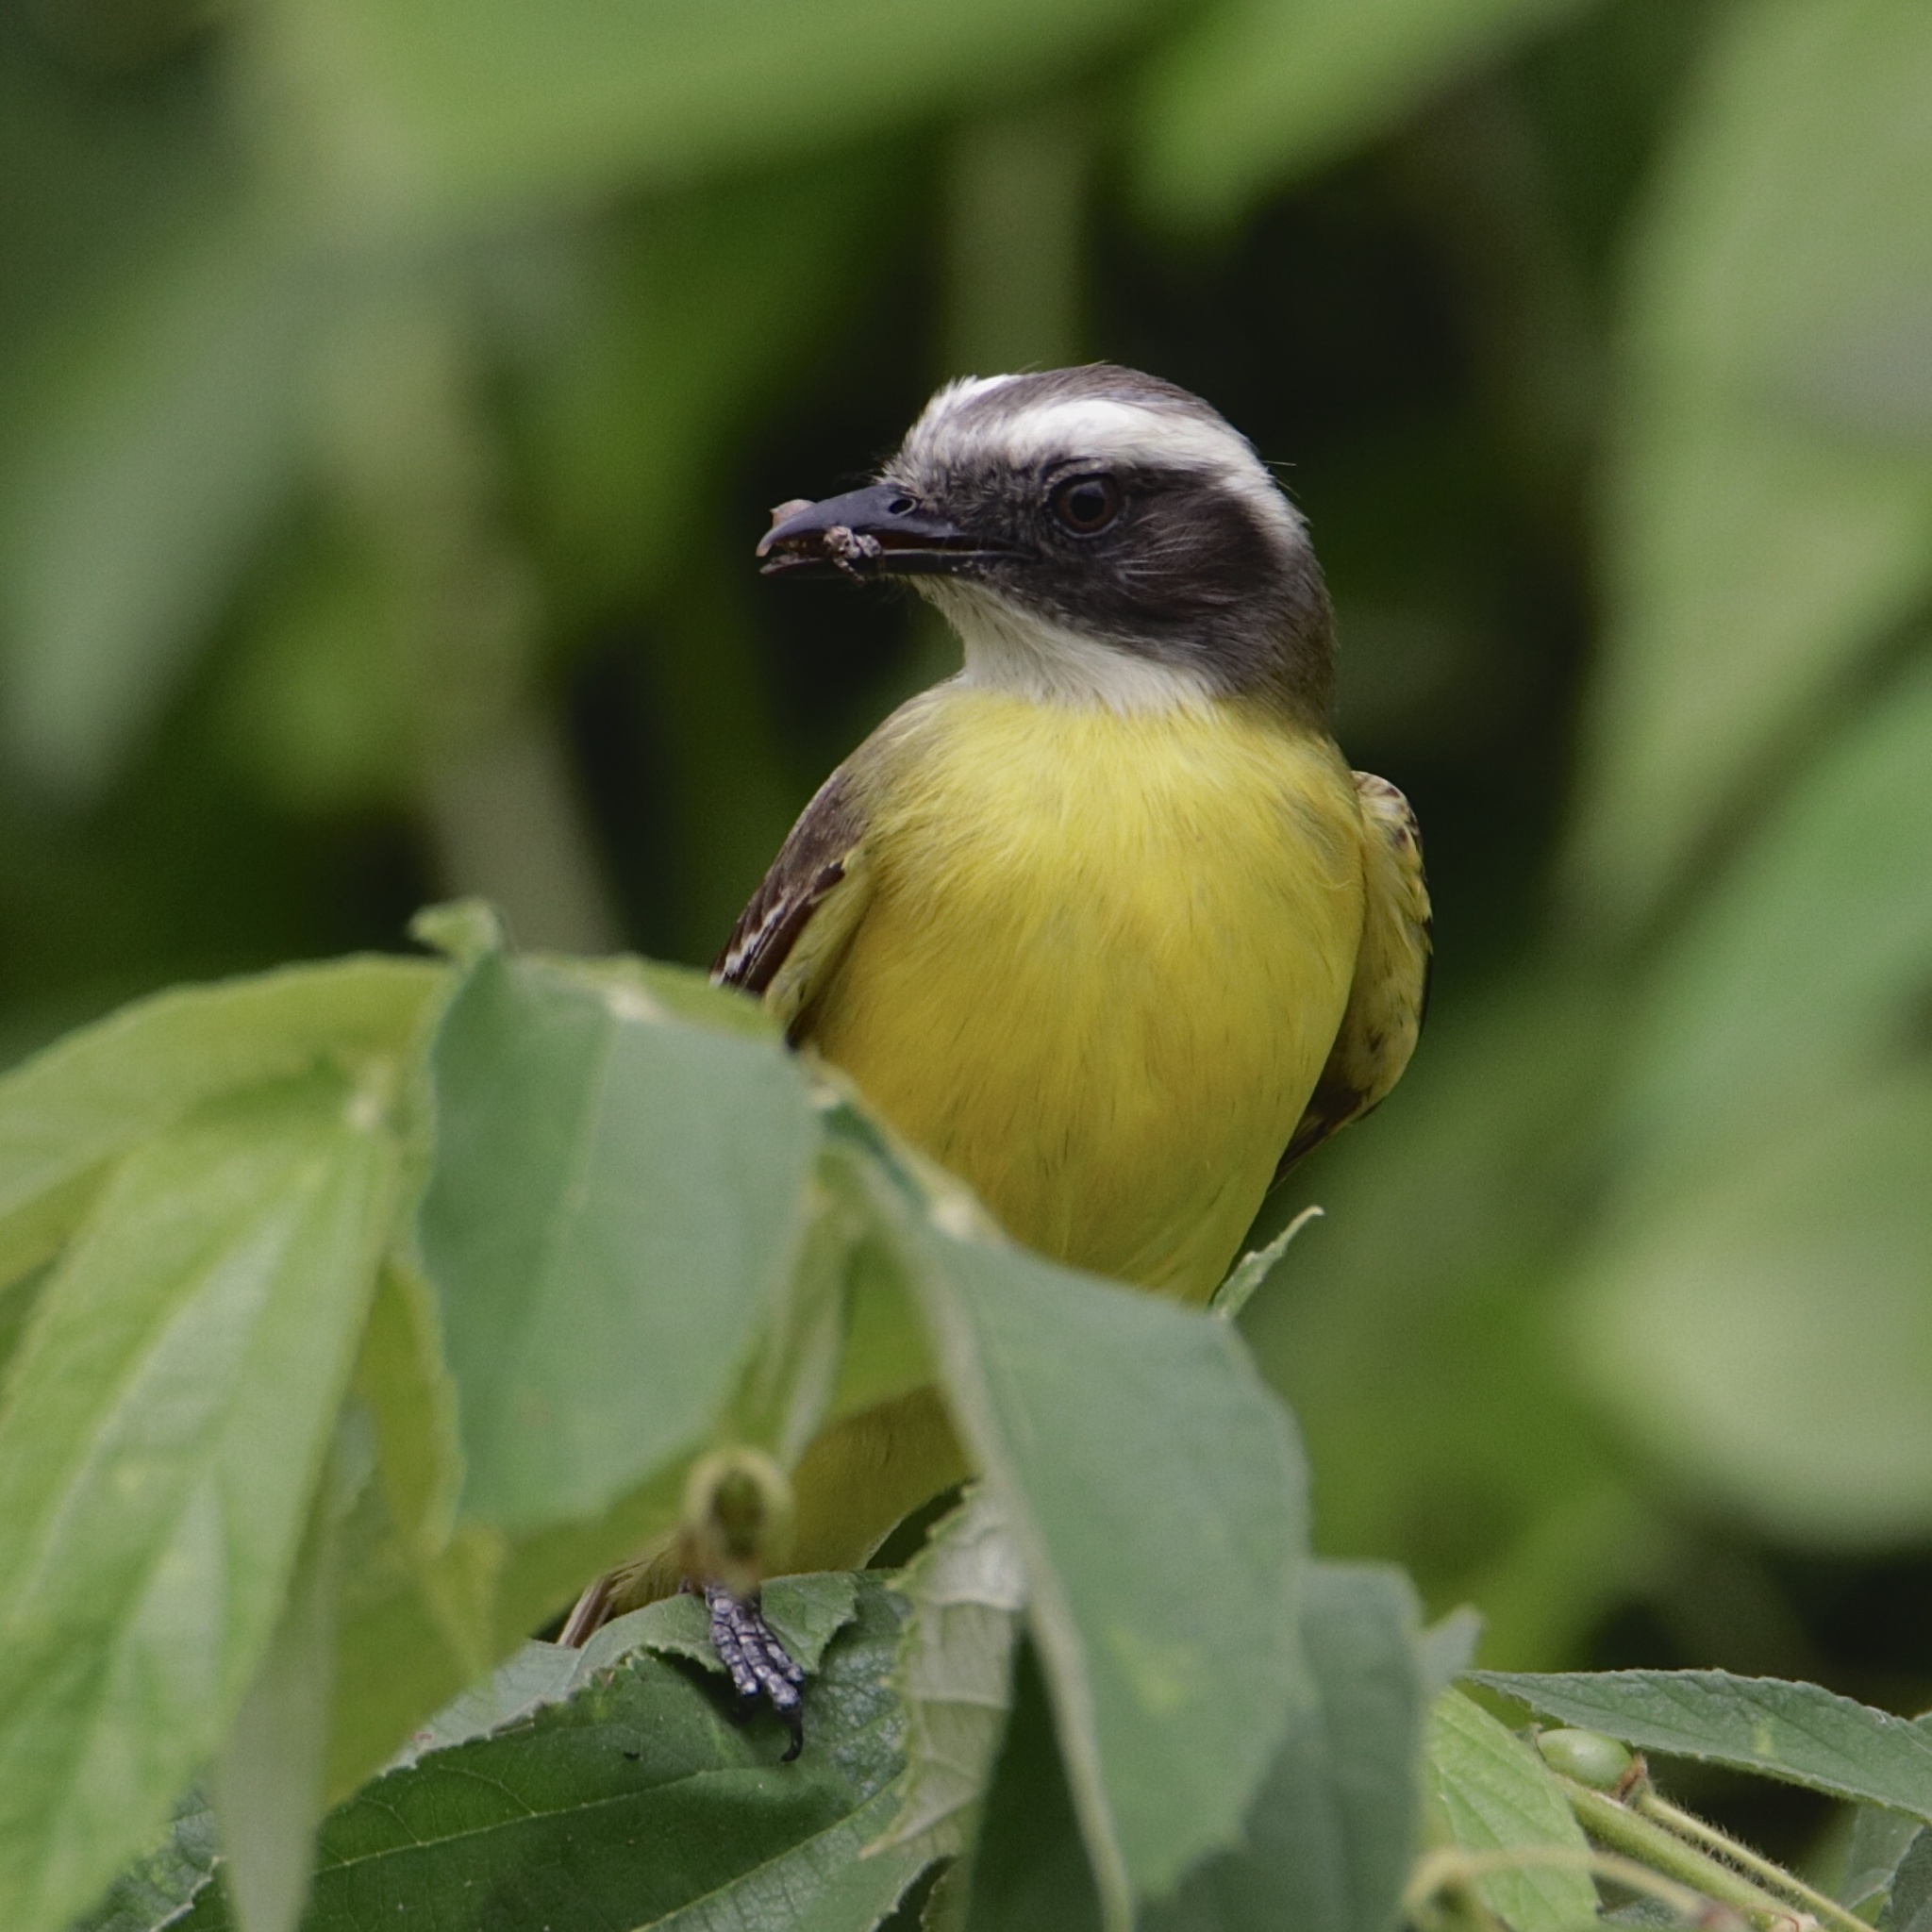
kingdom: Animalia
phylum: Chordata
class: Aves
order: Passeriformes
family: Tyrannidae
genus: Myiozetetes
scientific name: Myiozetetes similis
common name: Social flycatcher
